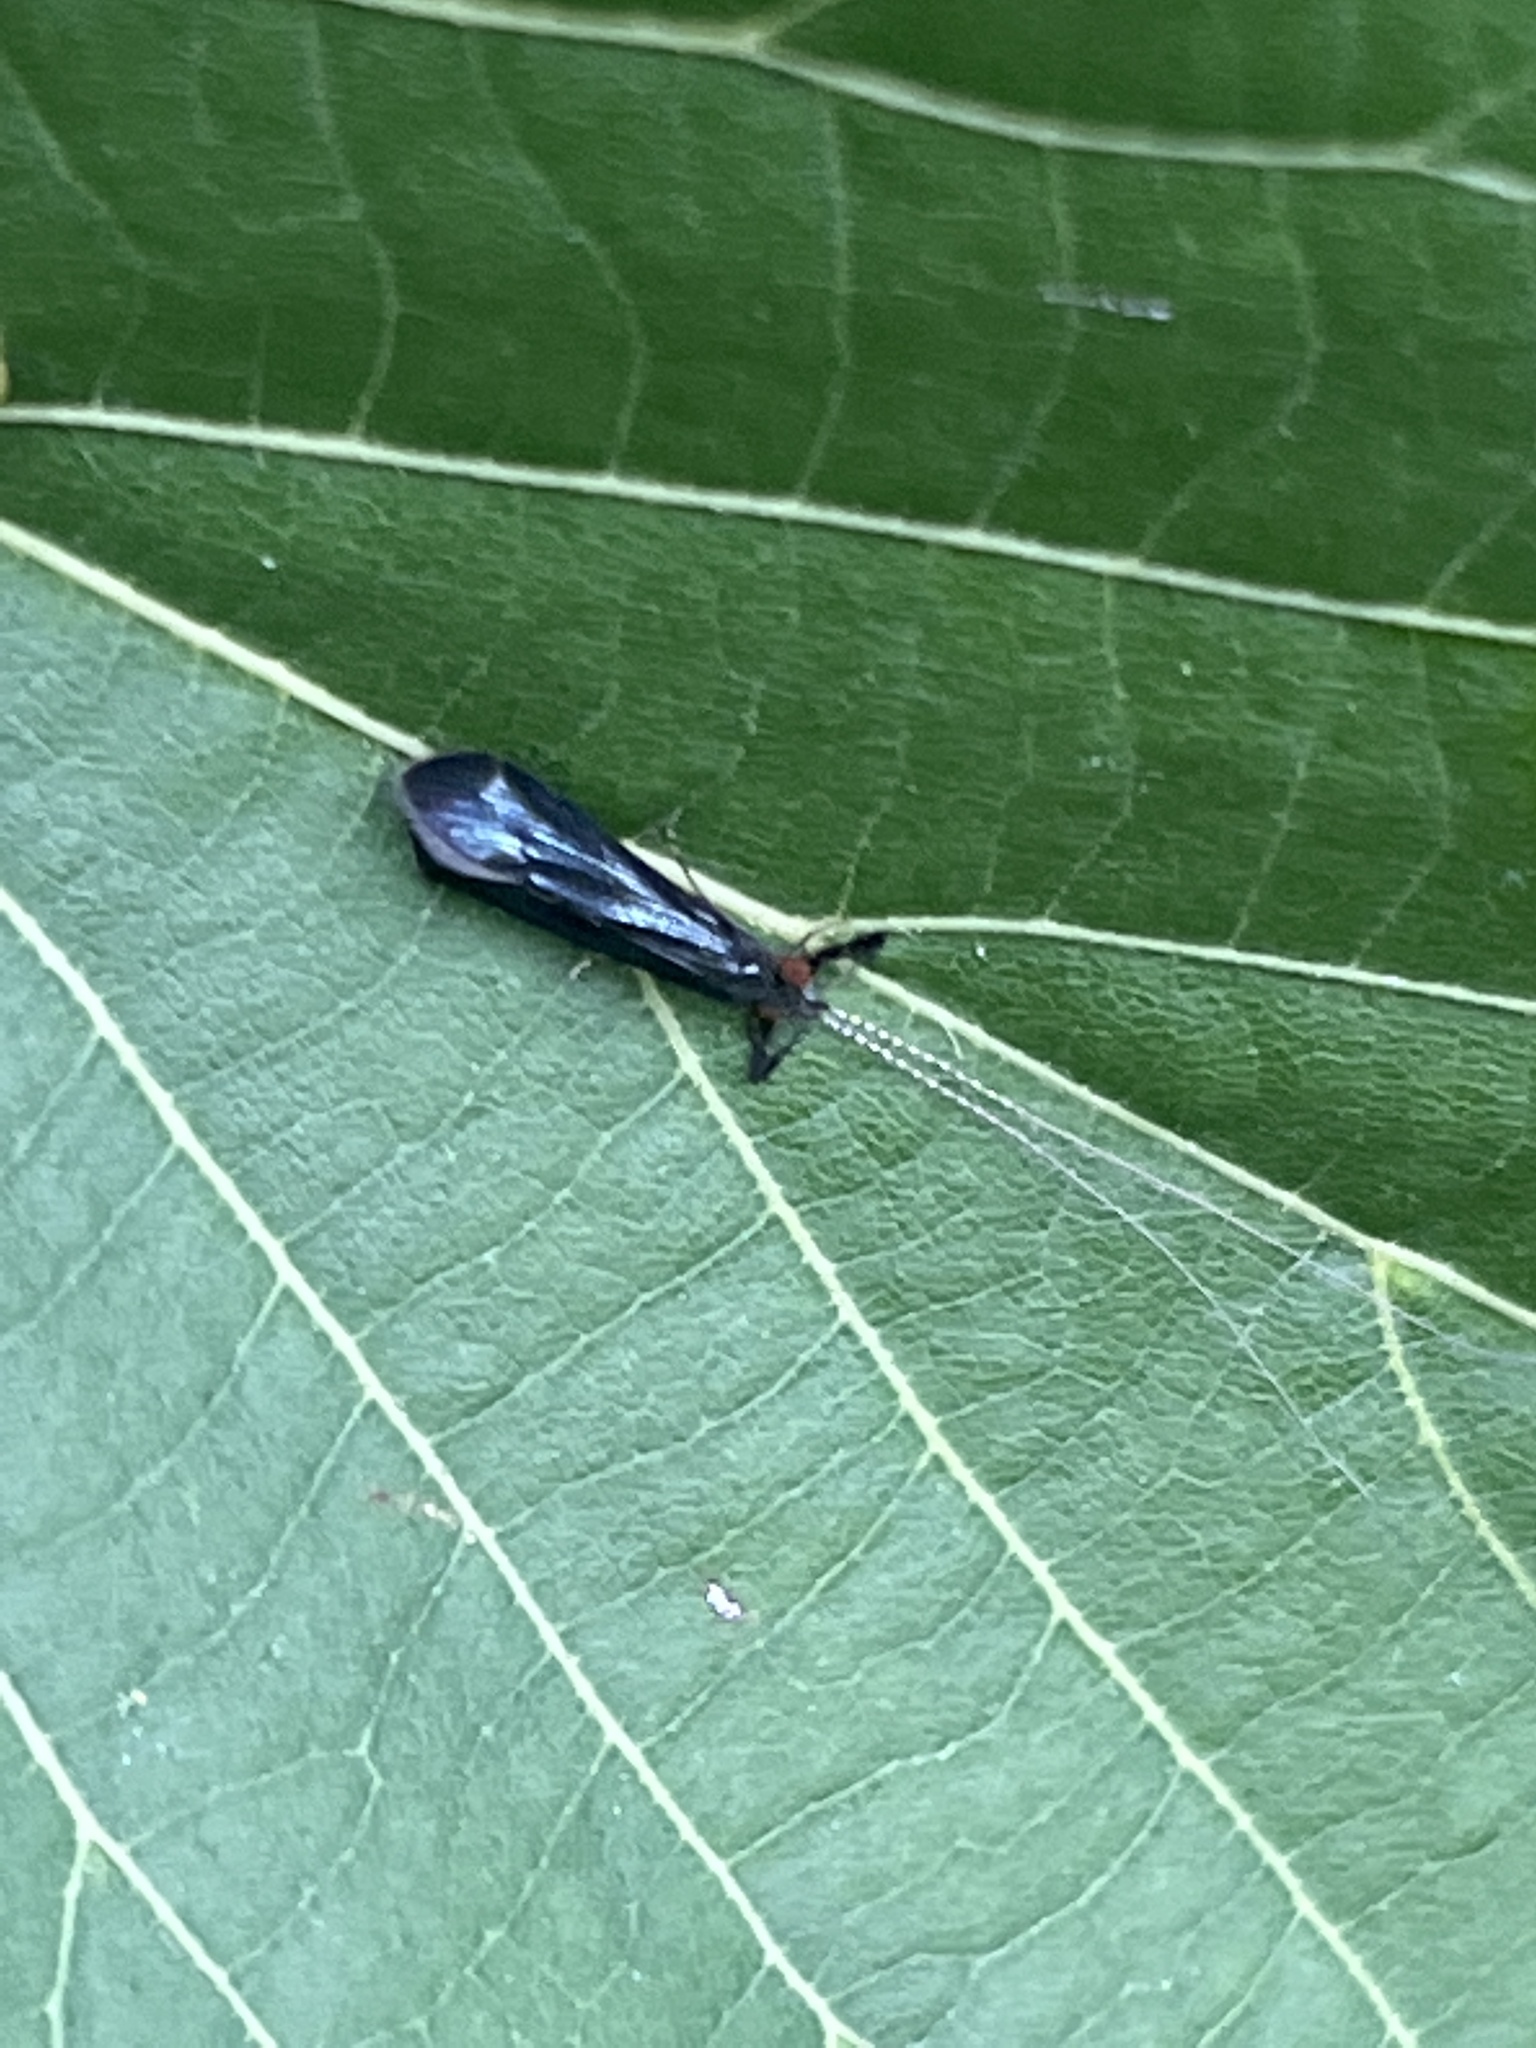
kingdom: Animalia
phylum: Arthropoda
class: Insecta
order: Trichoptera
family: Leptoceridae
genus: Mystacides
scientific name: Mystacides sepulchralis
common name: Black dancer caddisfly
